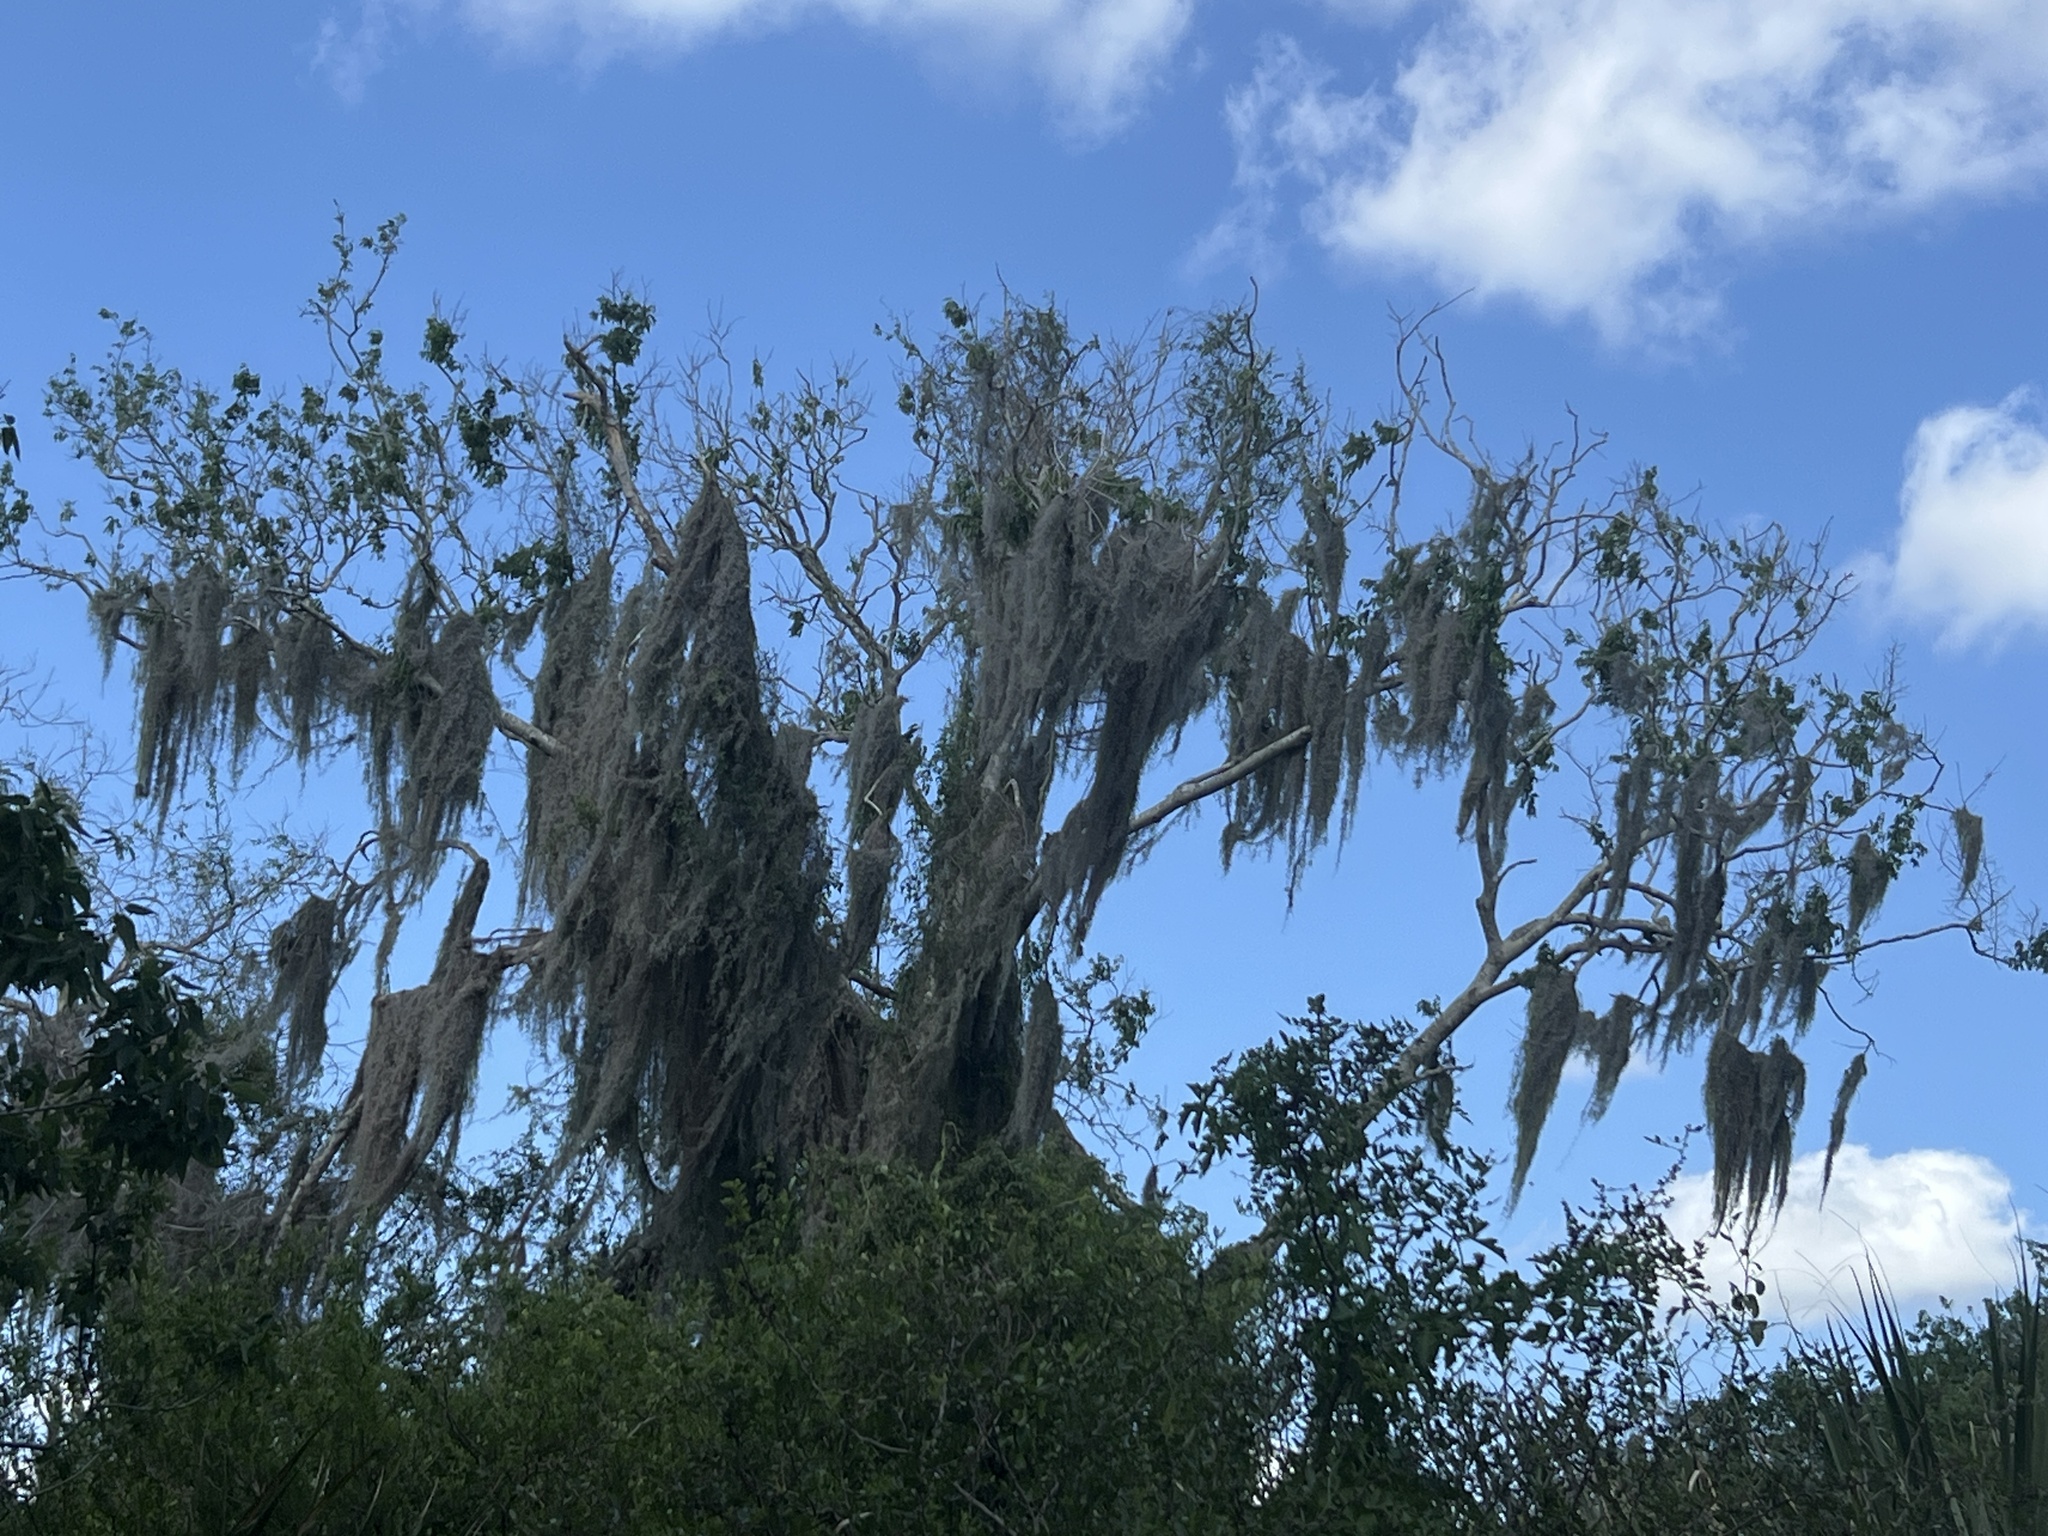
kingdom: Plantae
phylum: Tracheophyta
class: Liliopsida
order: Poales
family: Bromeliaceae
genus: Tillandsia
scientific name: Tillandsia usneoides
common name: Spanish moss
